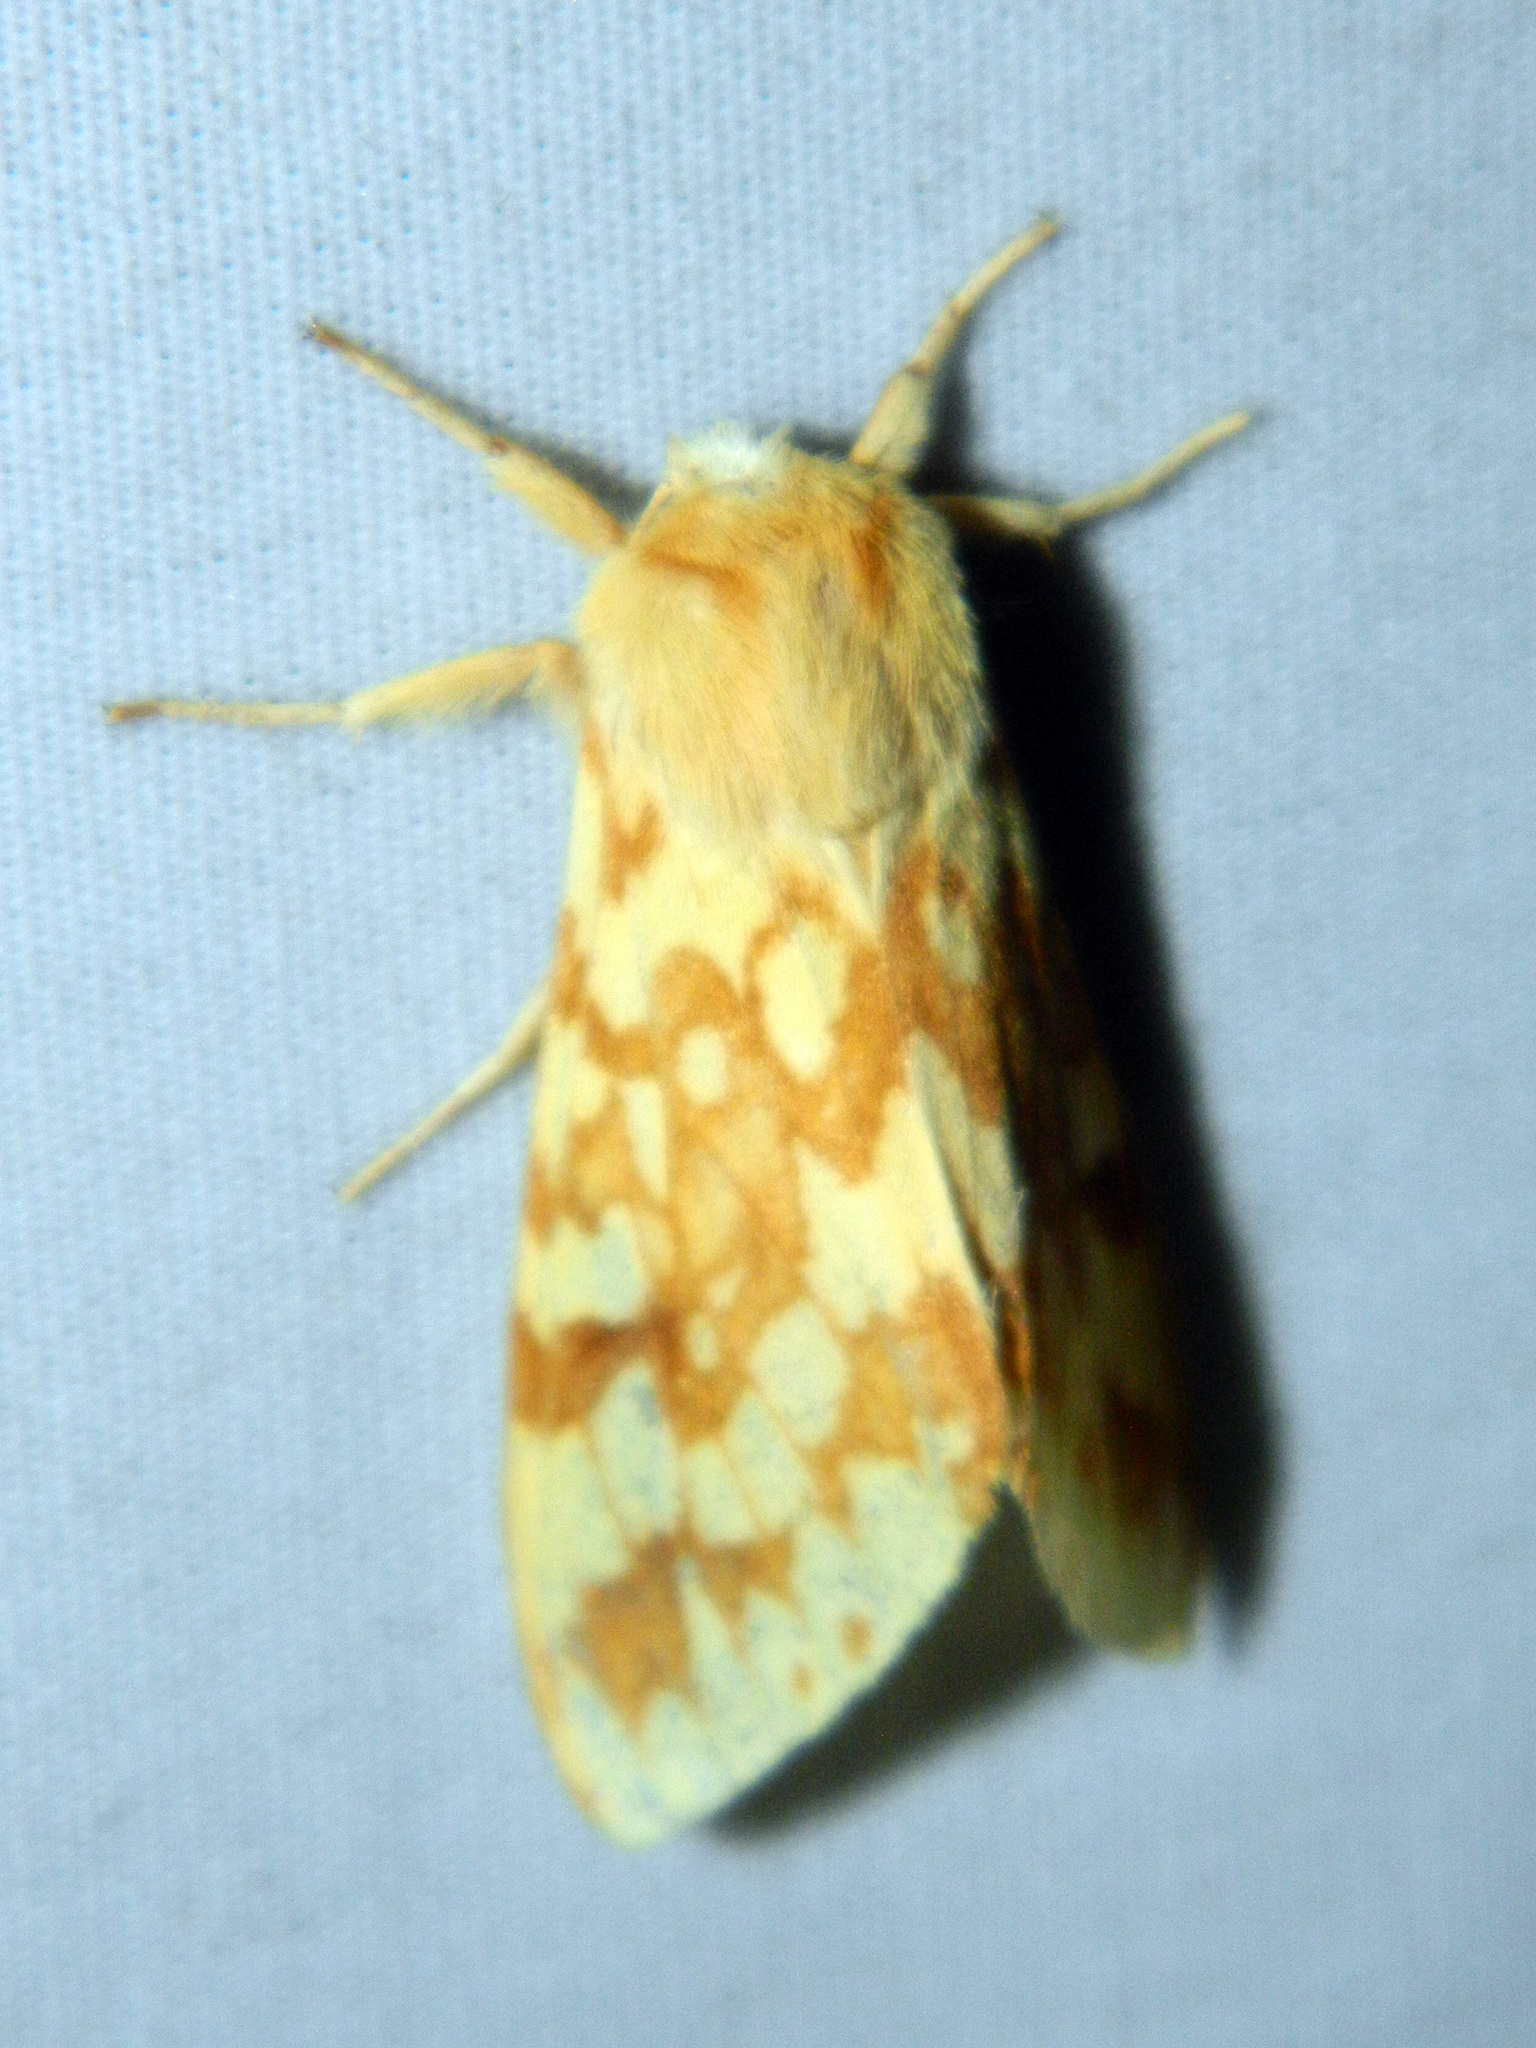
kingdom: Animalia
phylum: Arthropoda
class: Insecta
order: Lepidoptera
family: Erebidae
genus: Lophocampa
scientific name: Lophocampa maculata
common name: Spotted tussock moth
